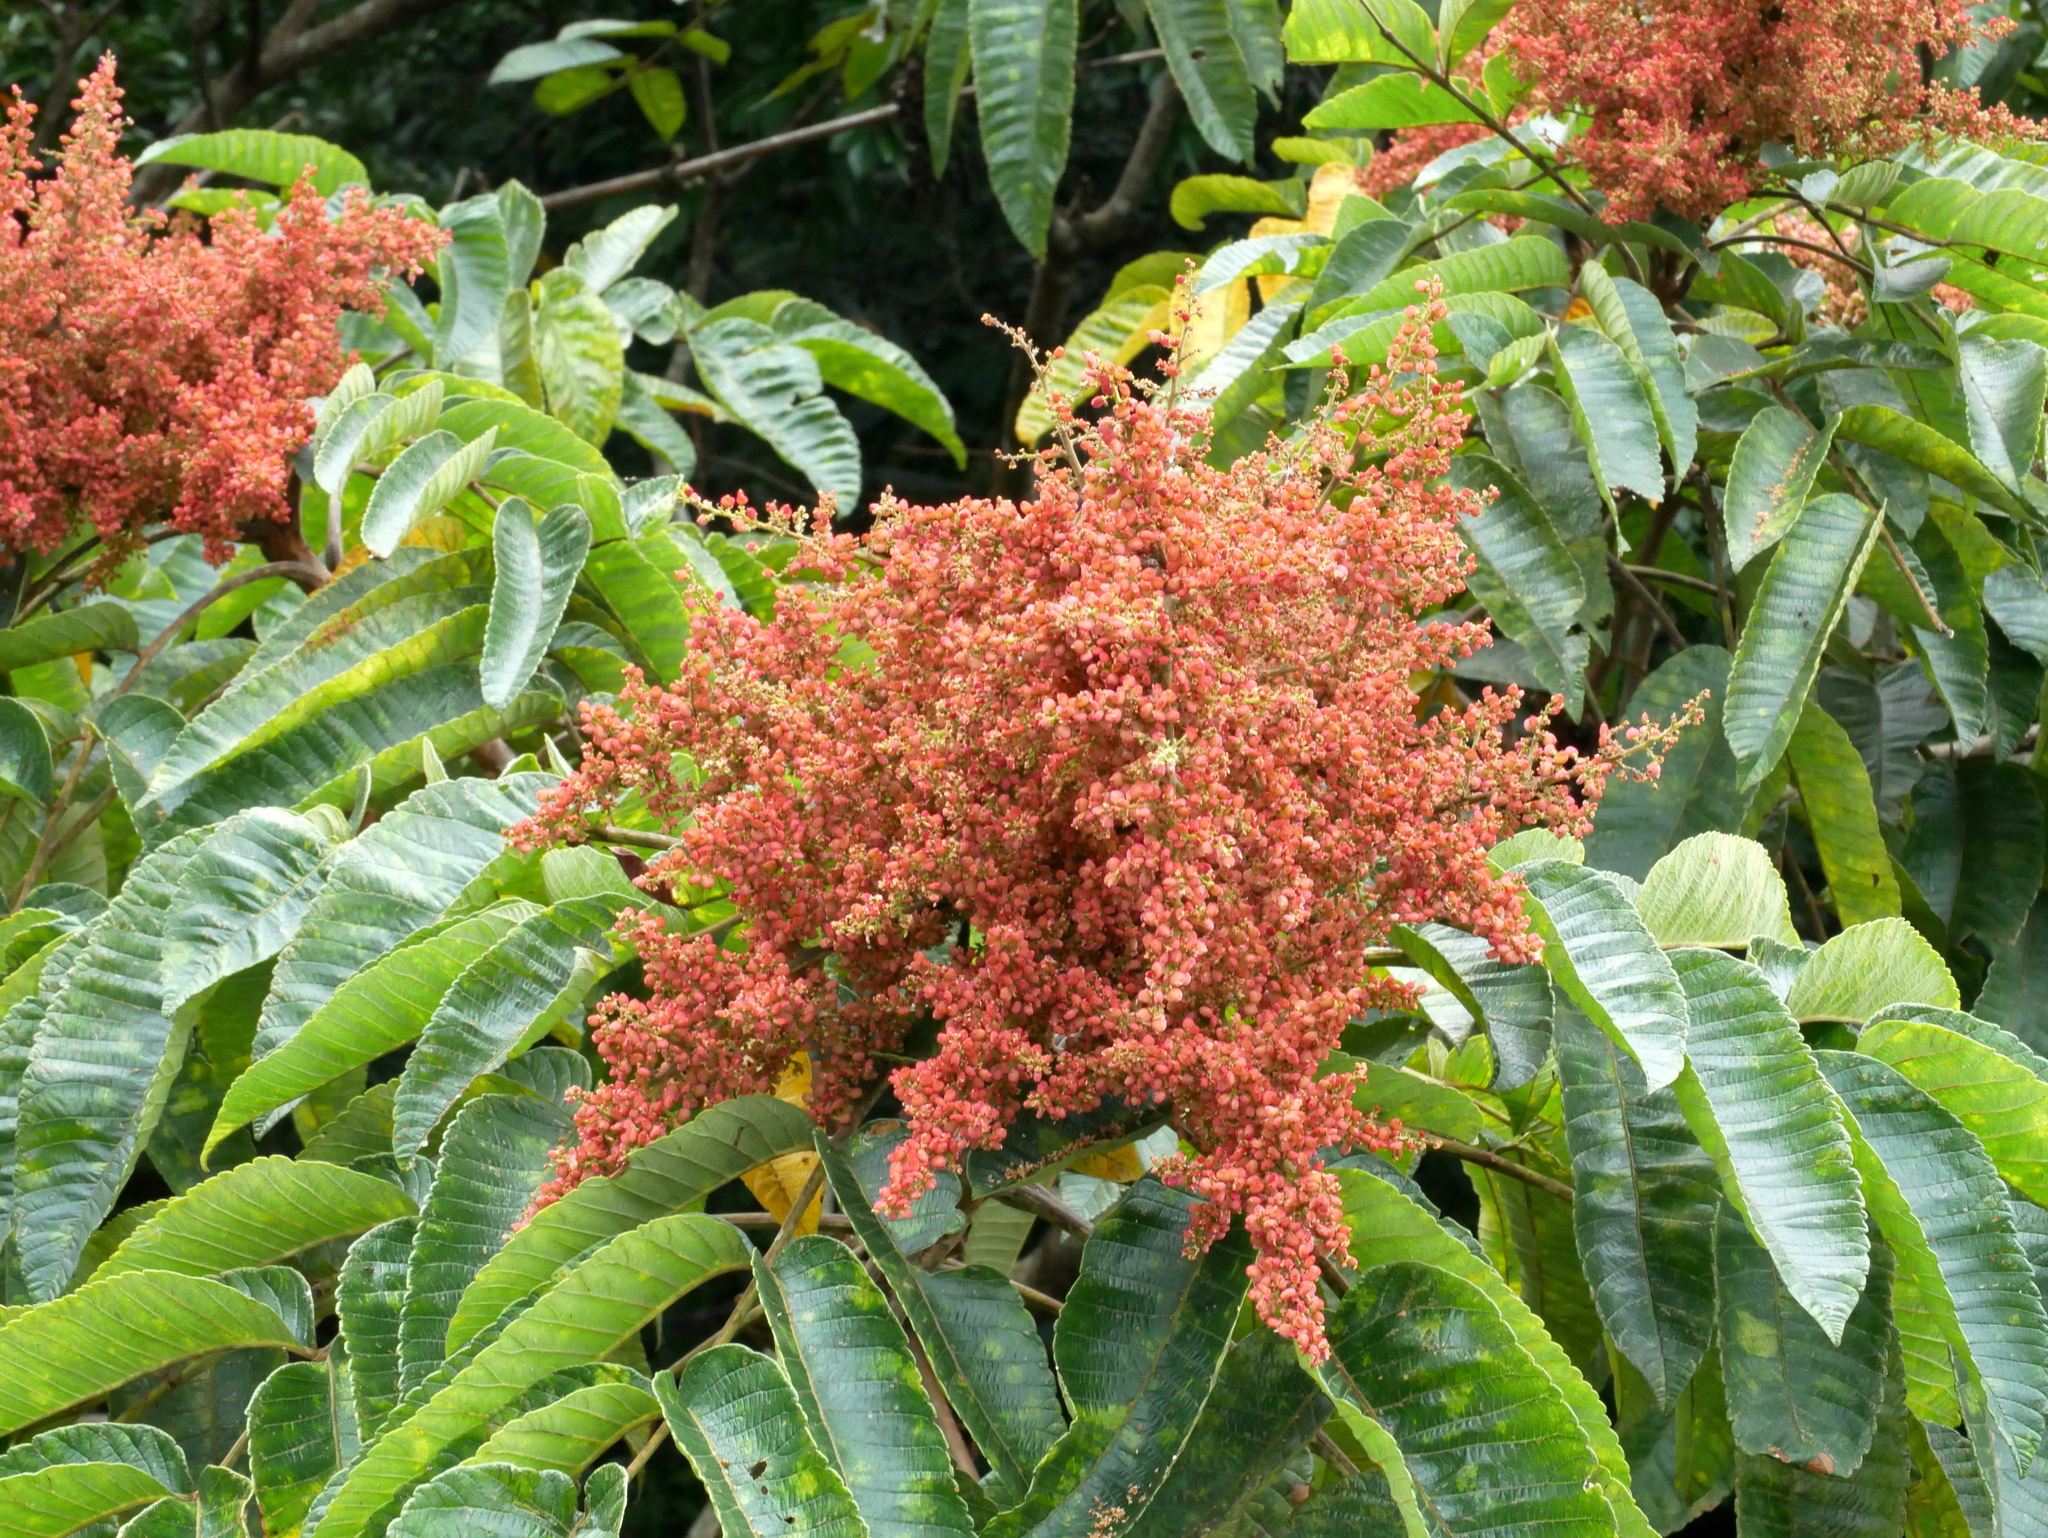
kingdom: Plantae
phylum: Tracheophyta
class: Magnoliopsida
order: Sapindales
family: Anacardiaceae
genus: Rhus
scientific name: Rhus chinensis
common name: Chinese gall
